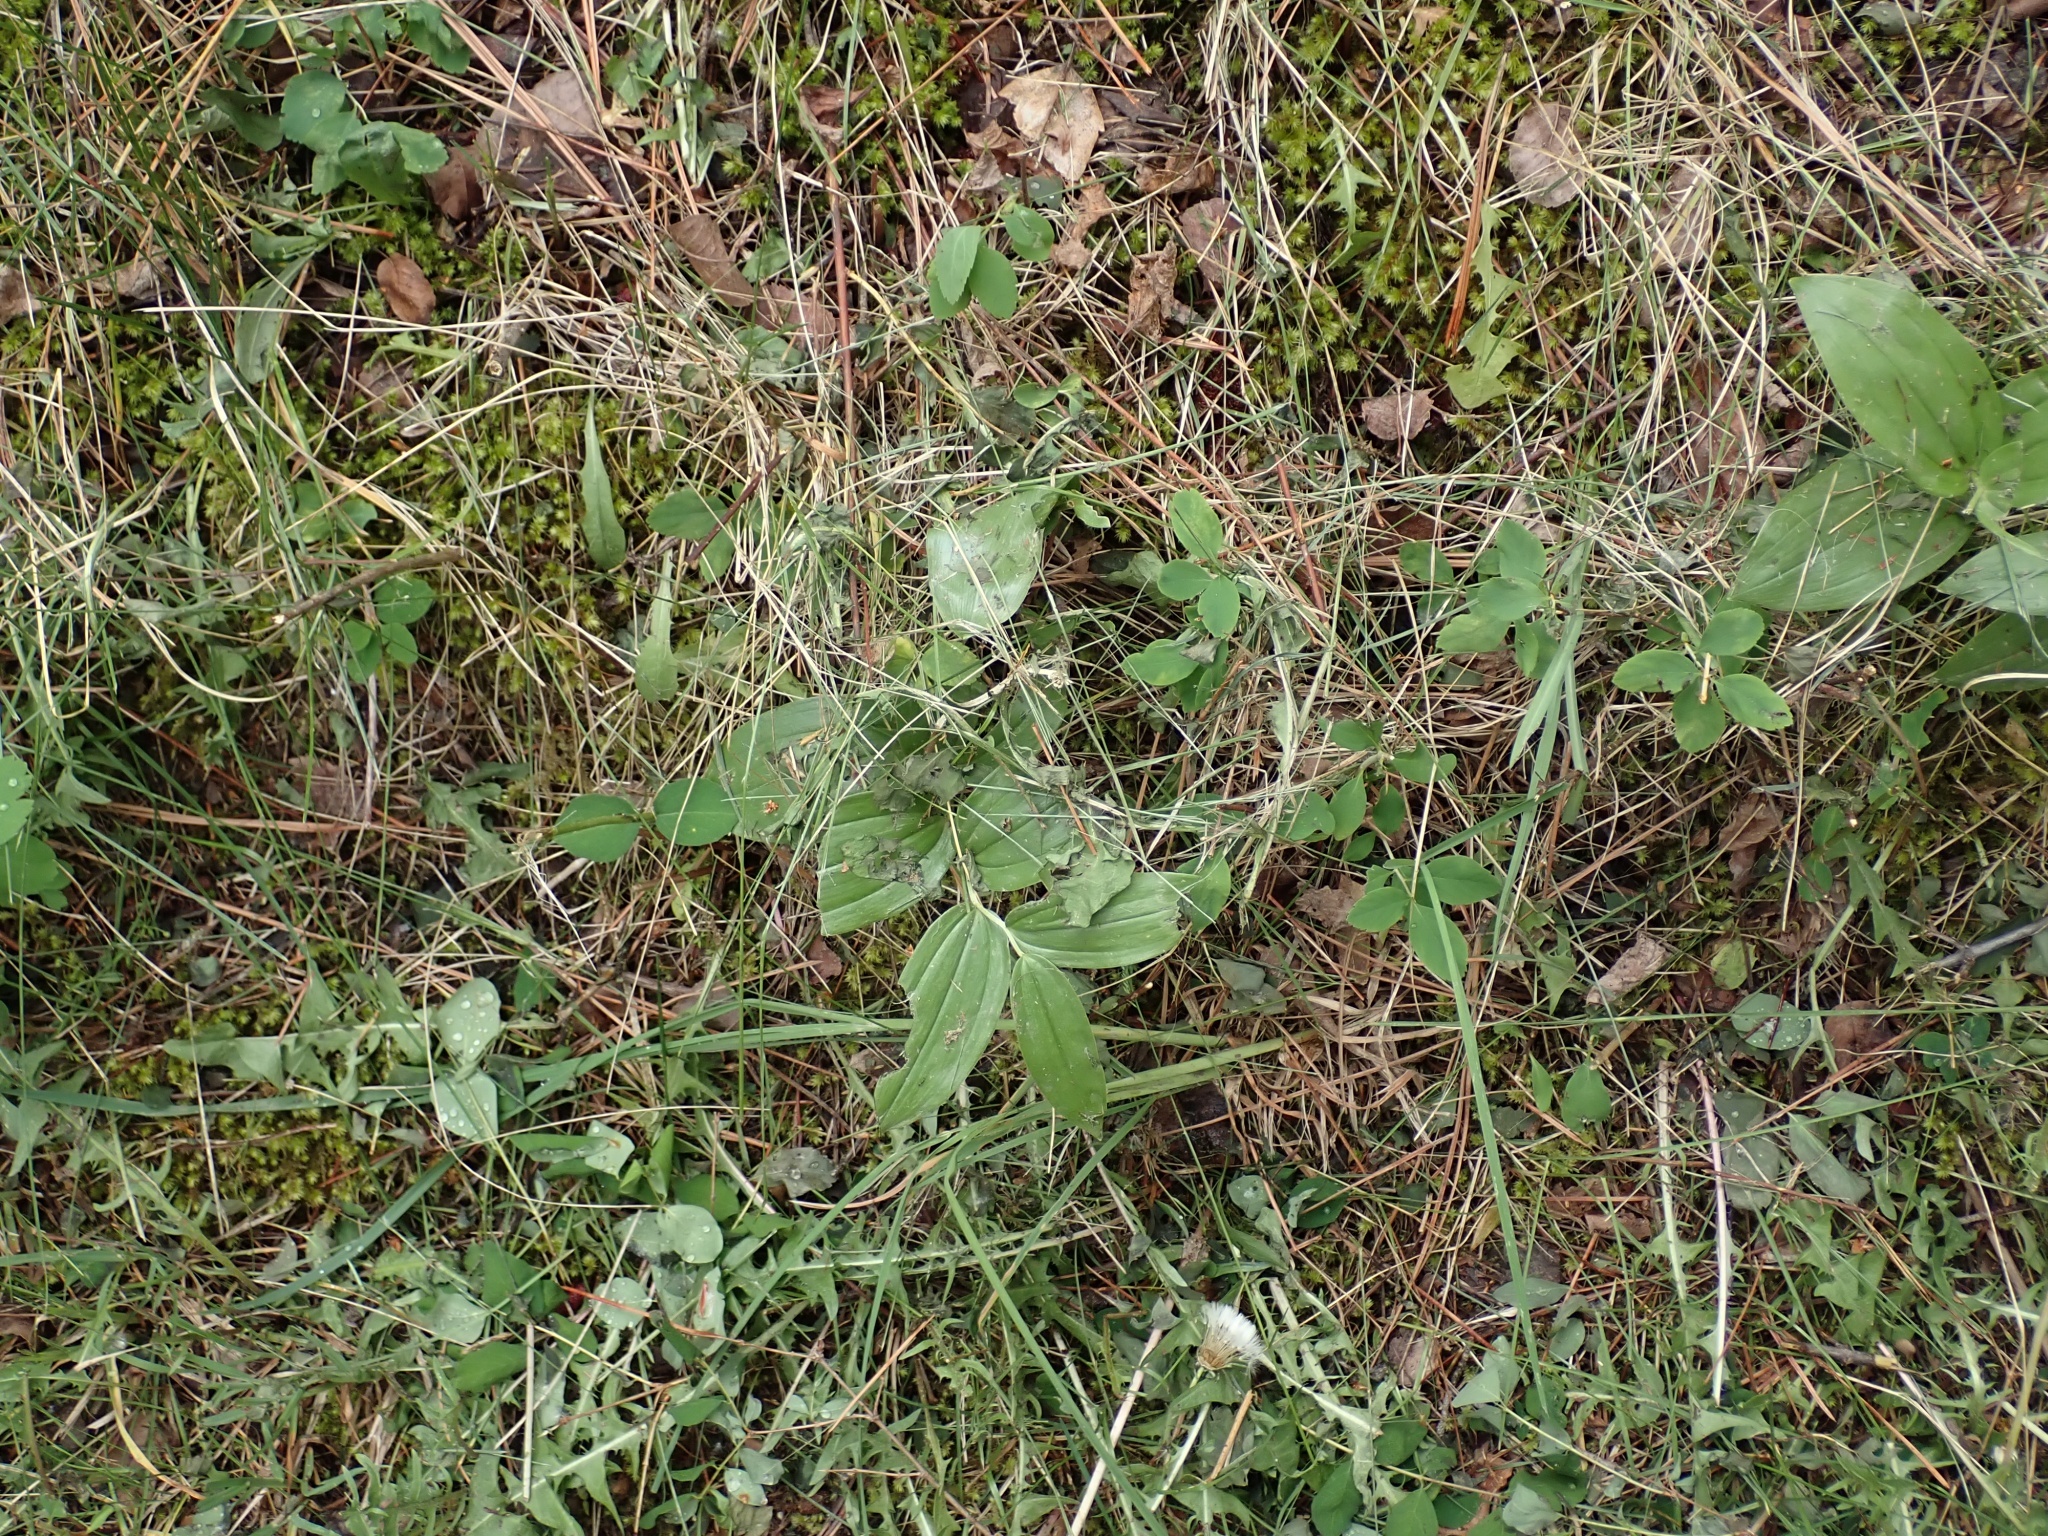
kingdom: Plantae
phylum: Tracheophyta
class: Liliopsida
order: Asparagales
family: Asparagaceae
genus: Maianthemum
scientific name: Maianthemum racemosum
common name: False spikenard
